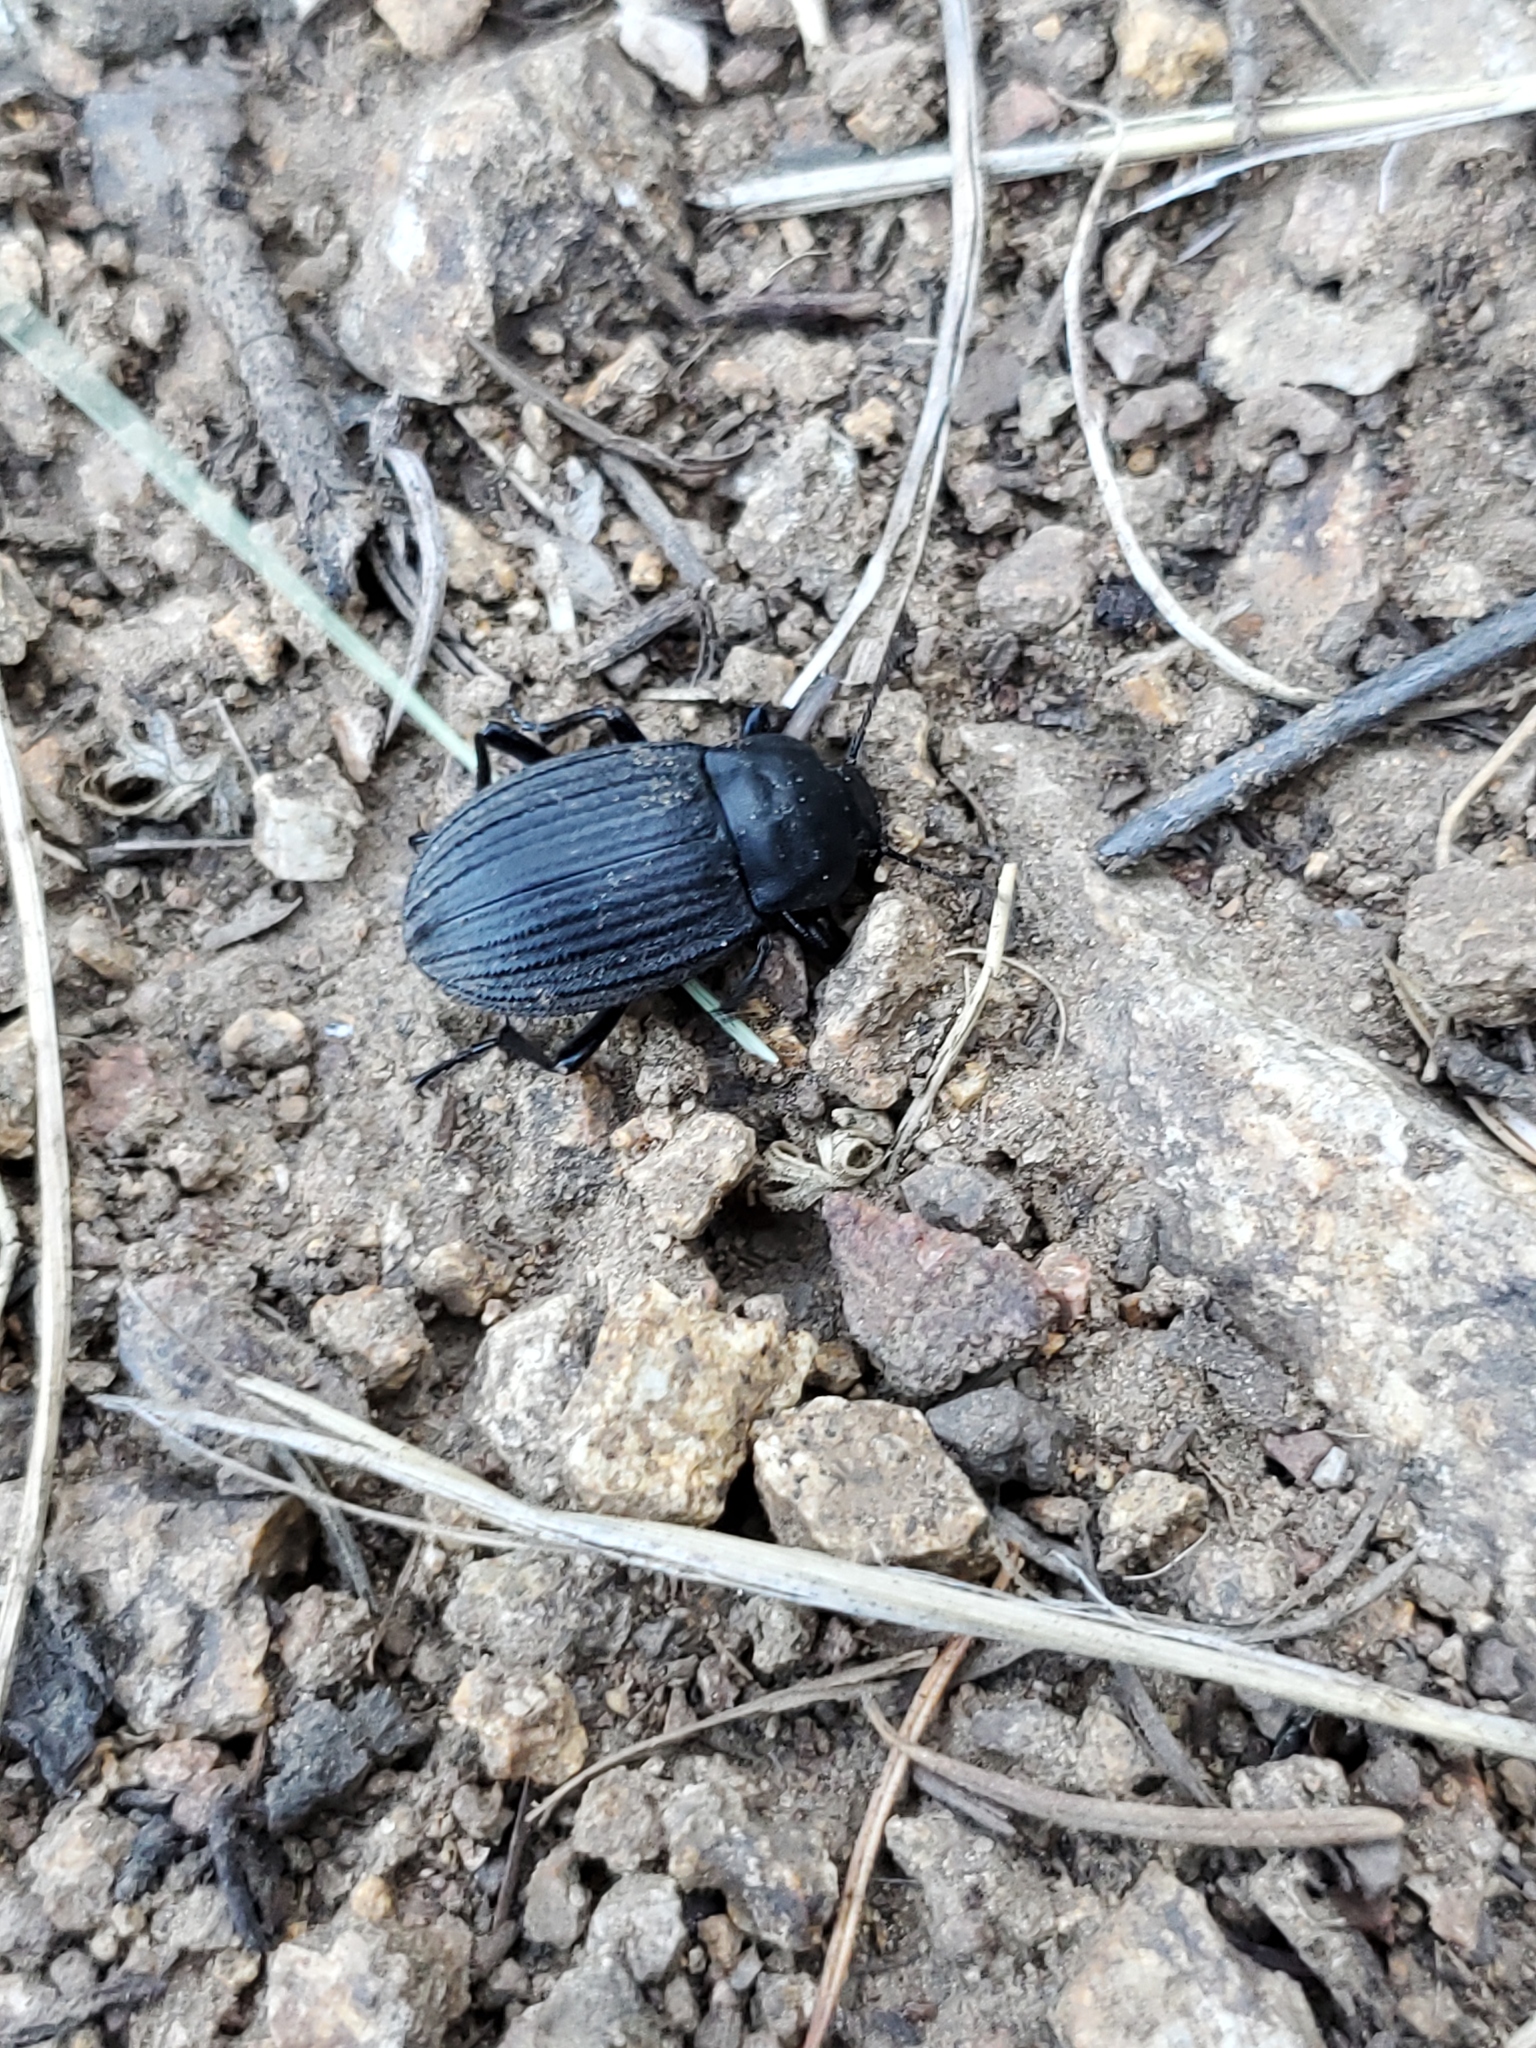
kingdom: Animalia
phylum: Arthropoda
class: Insecta
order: Coleoptera
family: Tenebrionidae
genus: Eleodes
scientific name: Eleodes tricostata
